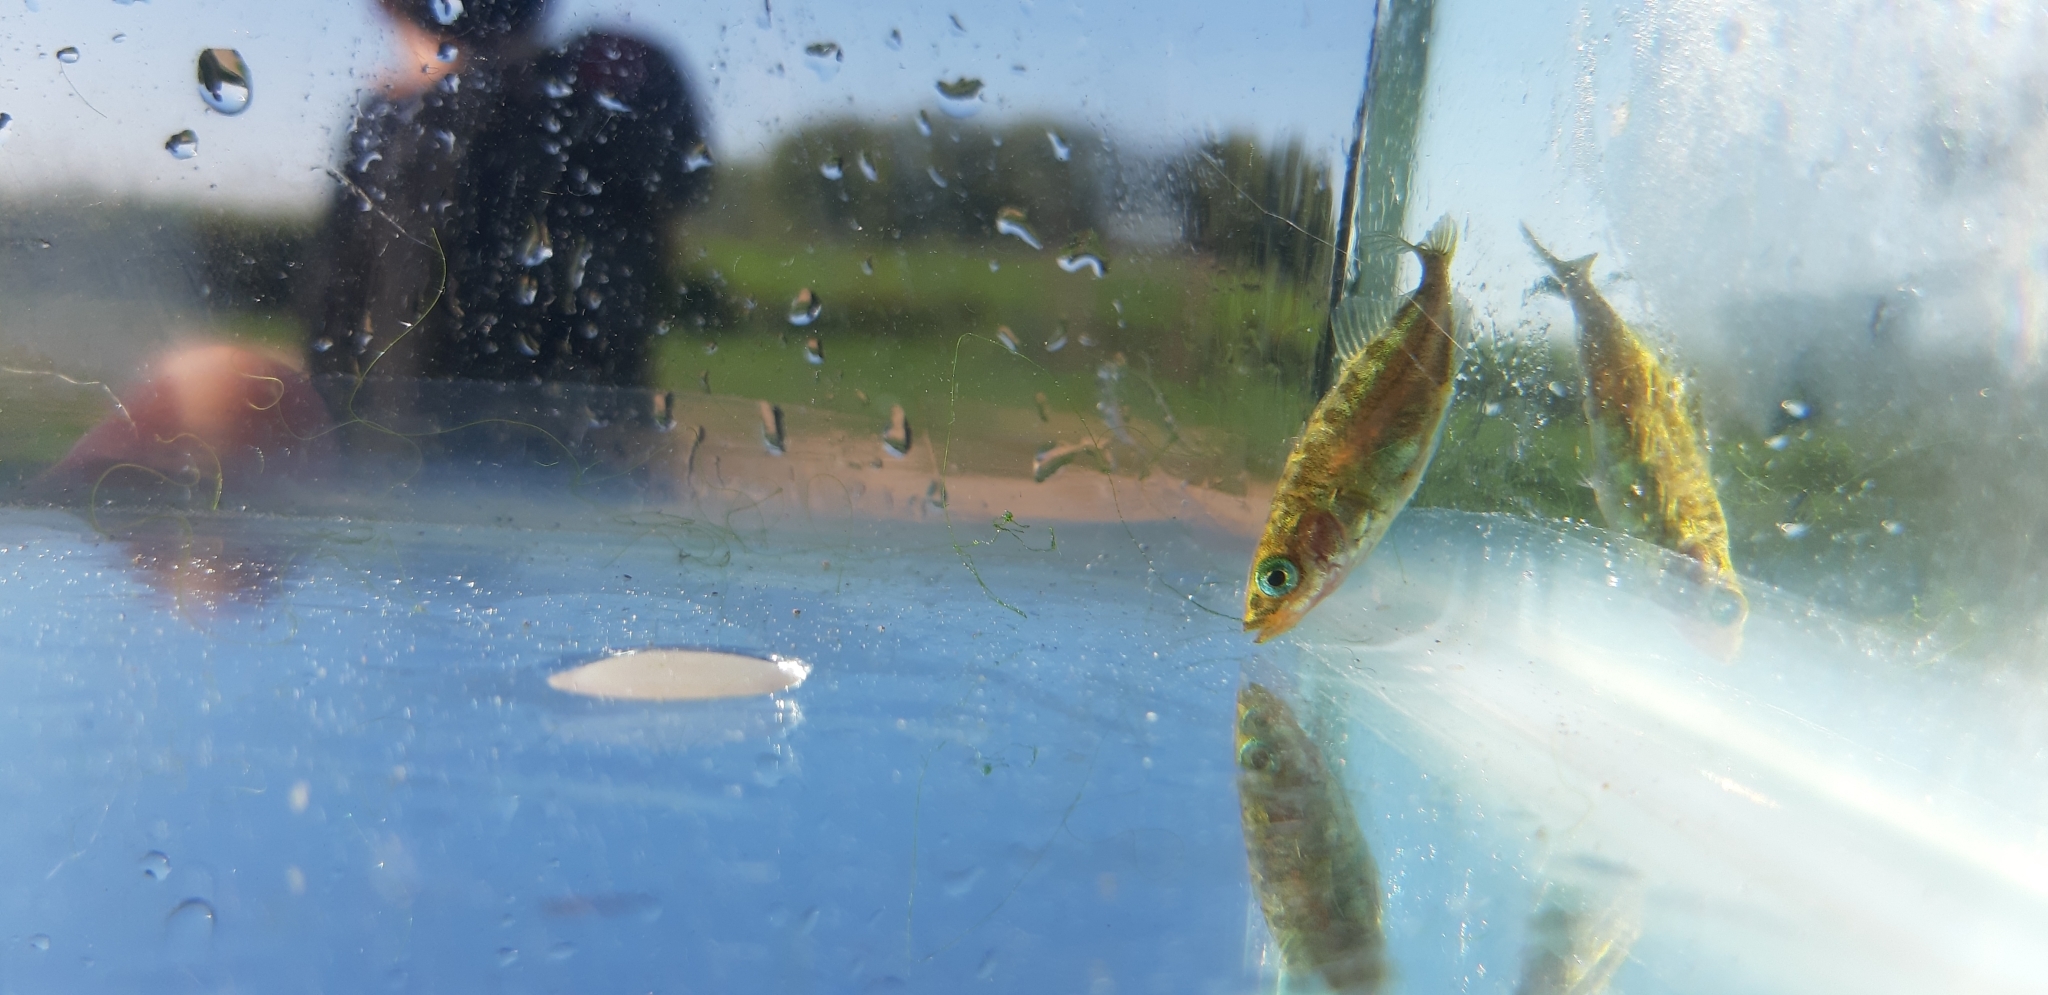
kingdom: Animalia
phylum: Chordata
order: Gasterosteiformes
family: Gasterosteidae
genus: Gasterosteus
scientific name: Gasterosteus aculeatus
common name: Three-spined stickleback
